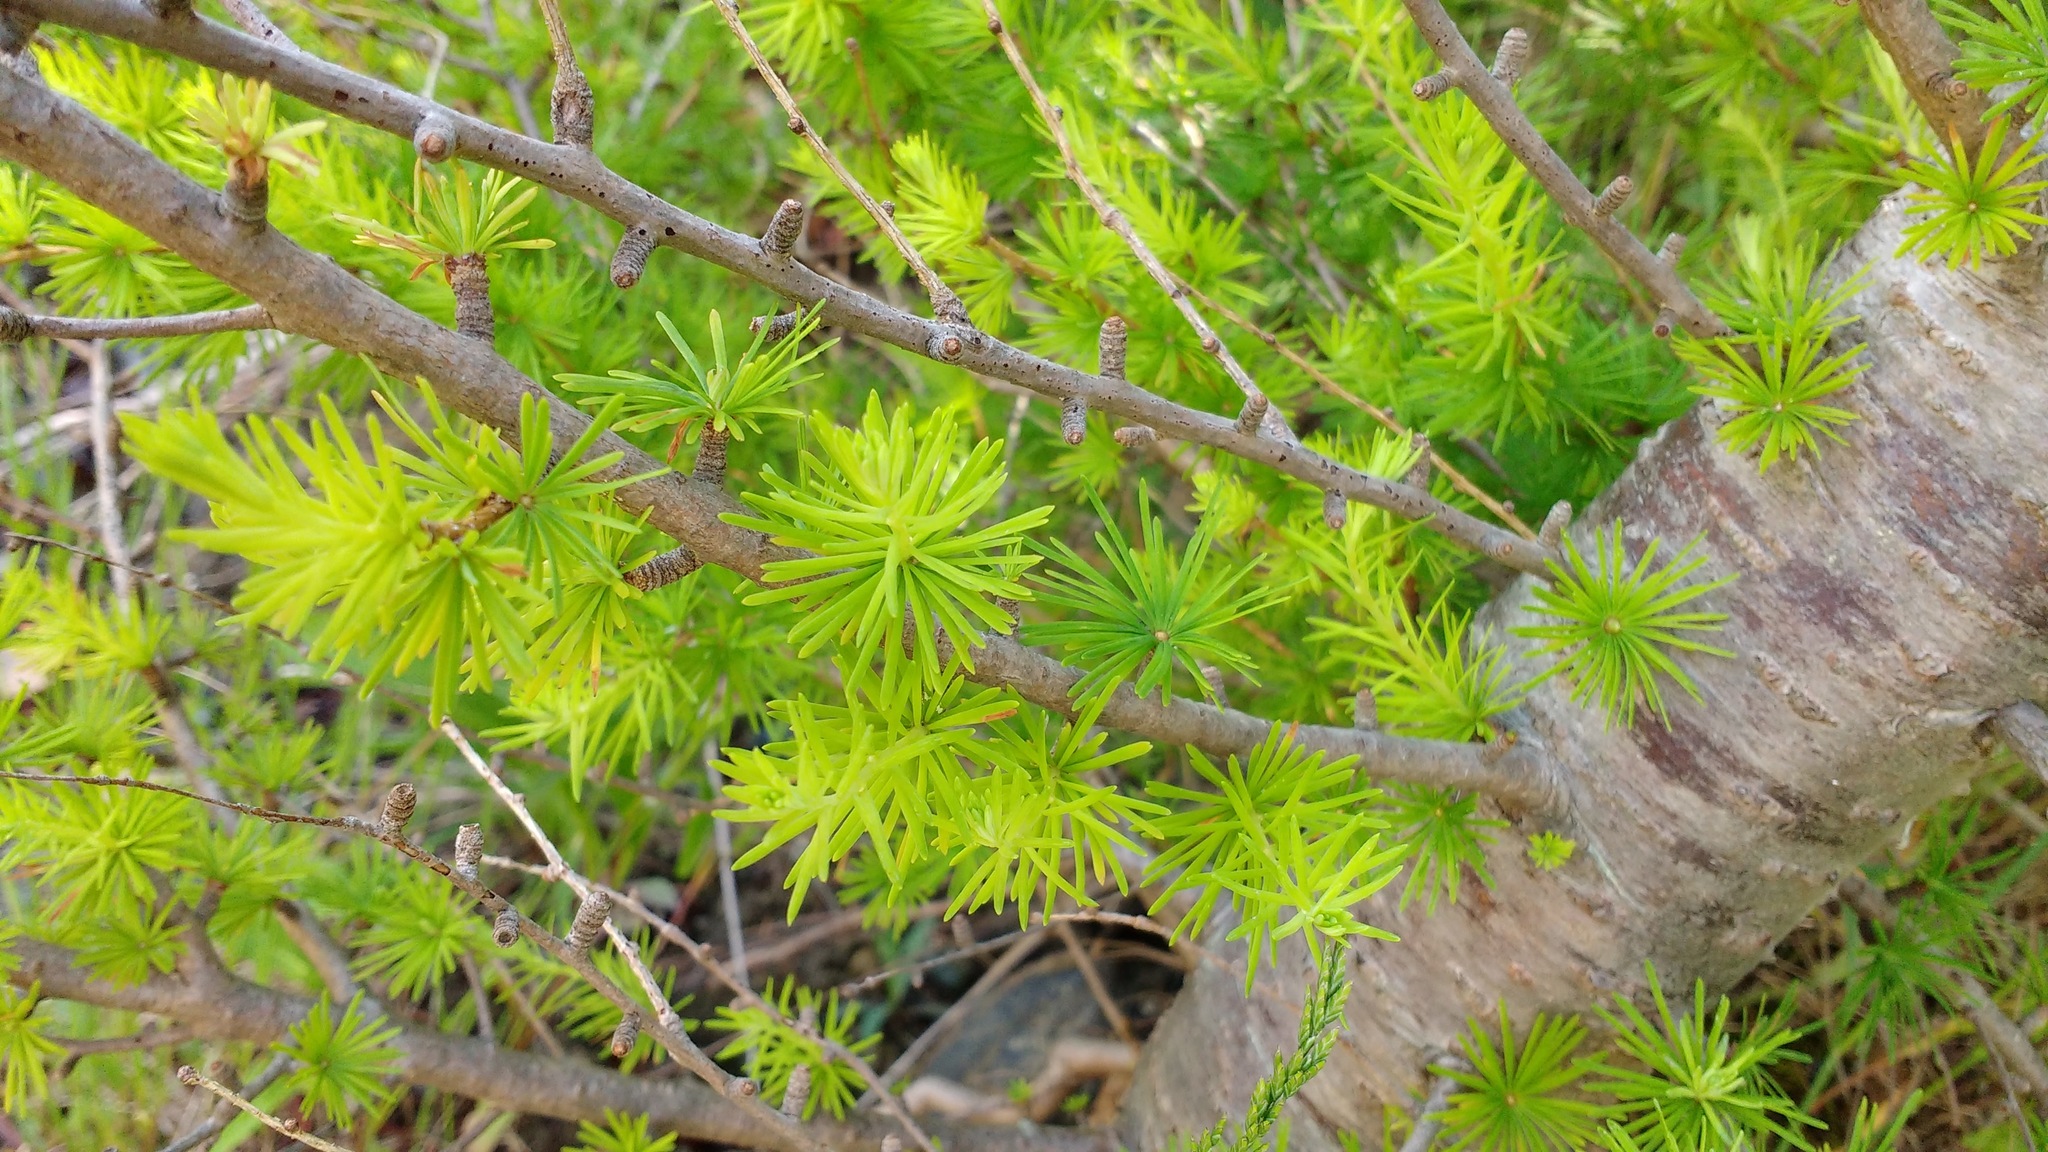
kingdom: Plantae
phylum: Tracheophyta
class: Pinopsida
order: Pinales
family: Pinaceae
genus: Larix
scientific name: Larix laricina
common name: American larch
